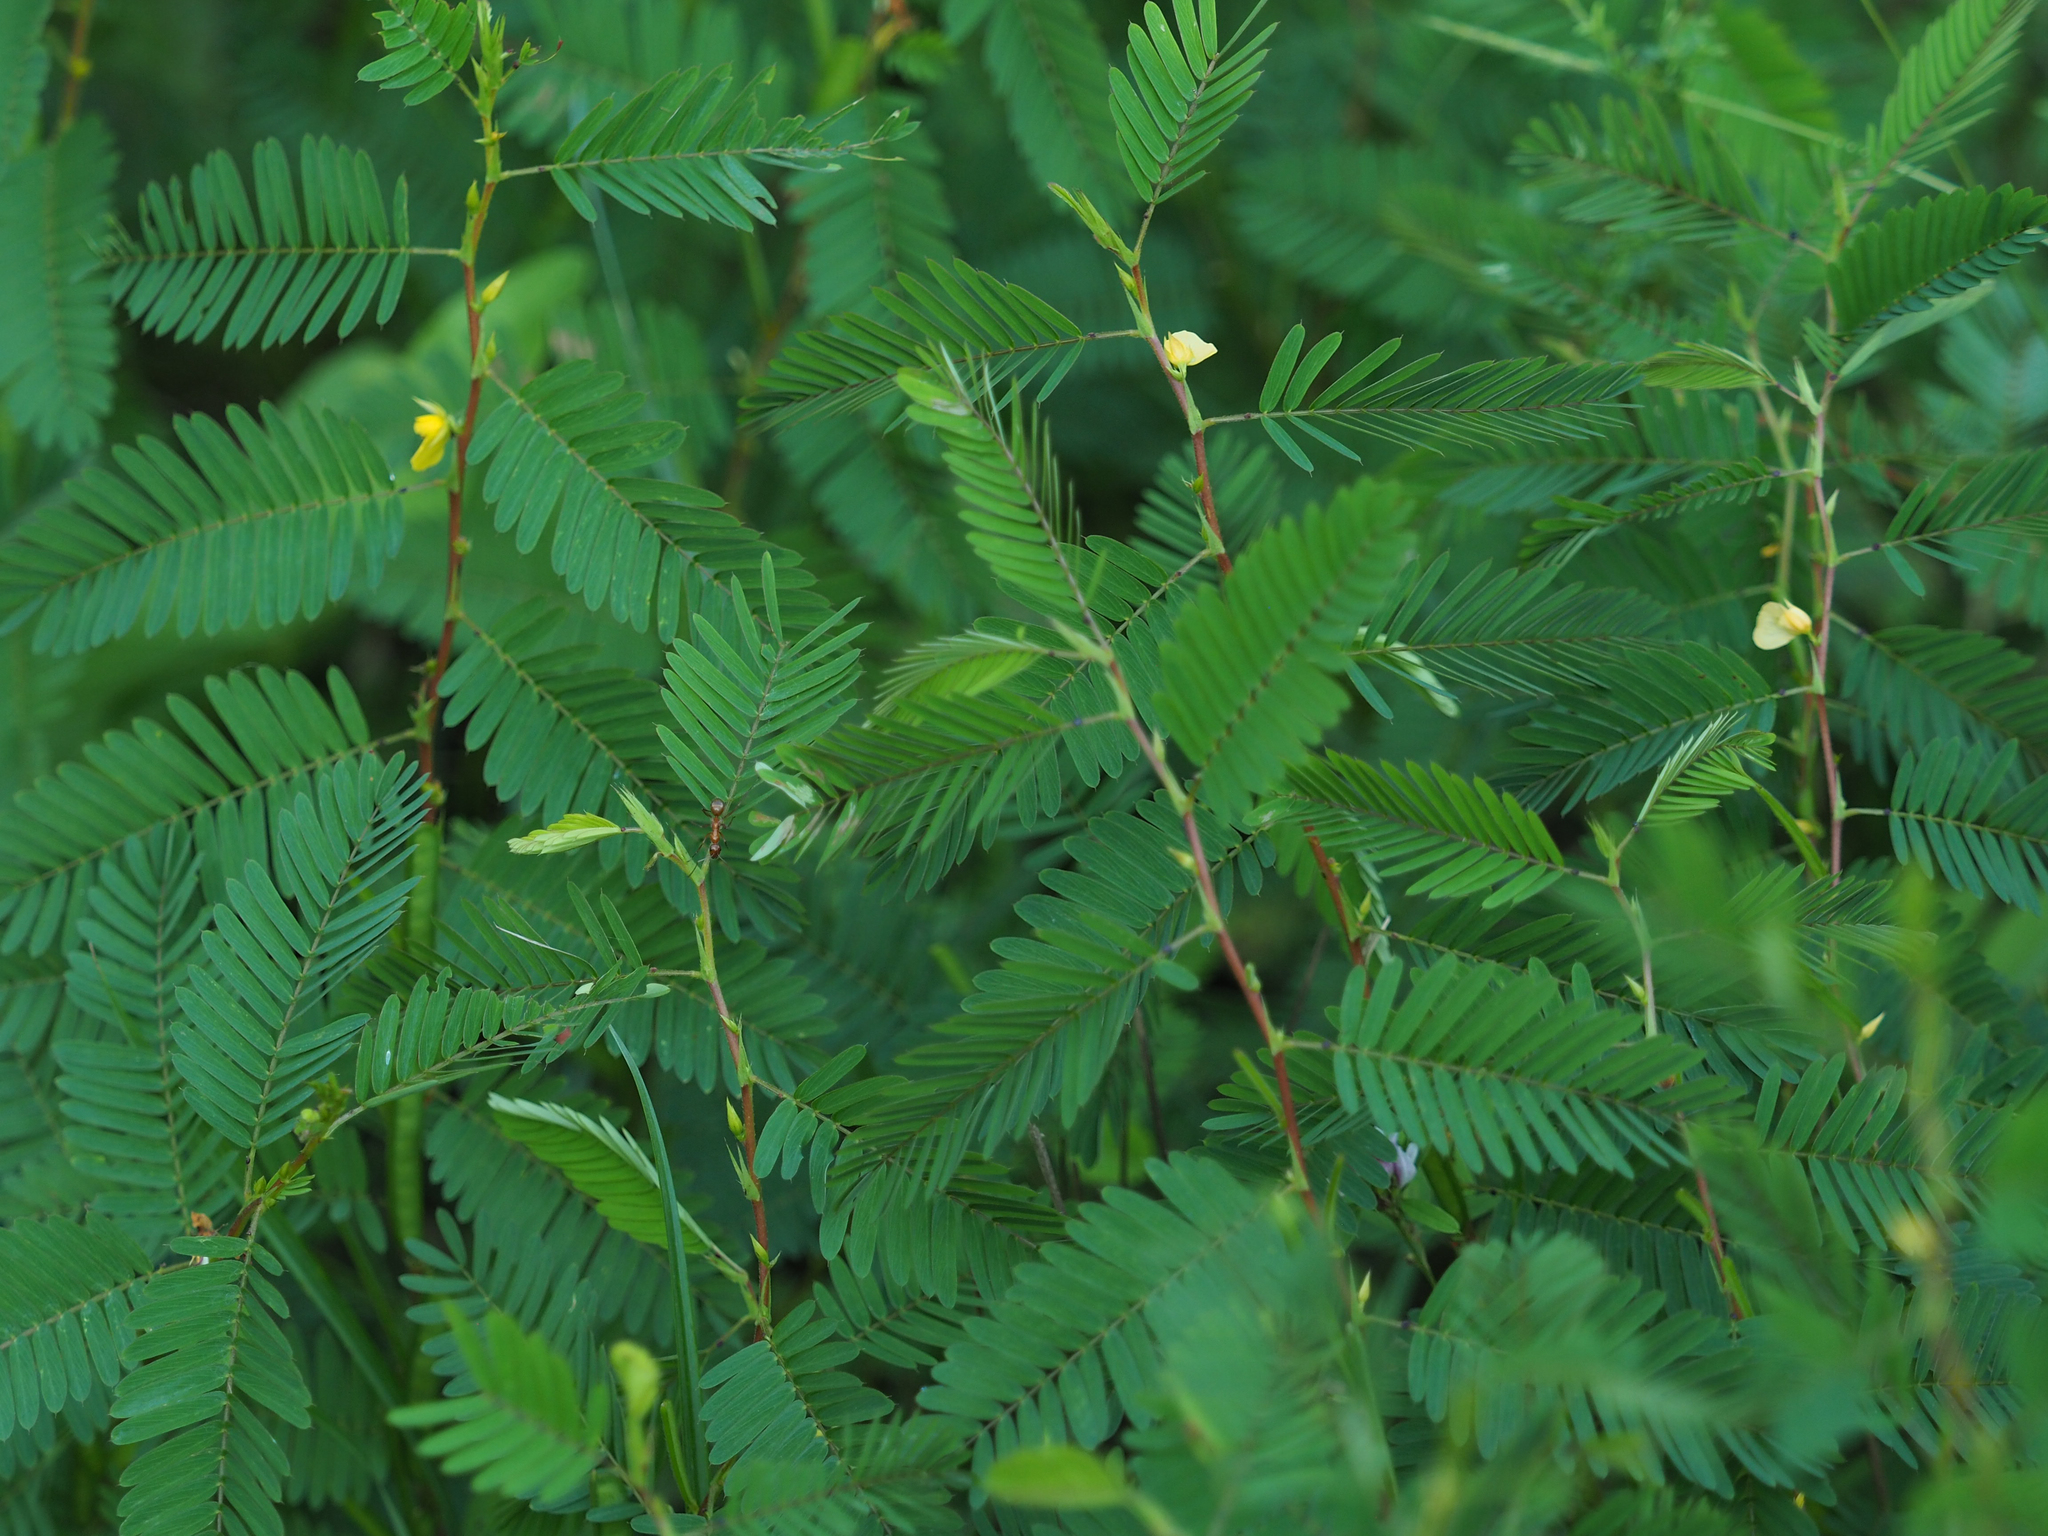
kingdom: Plantae
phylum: Tracheophyta
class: Magnoliopsida
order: Fabales
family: Fabaceae
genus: Chamaecrista
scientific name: Chamaecrista nictitans
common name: Sensitive cassia
